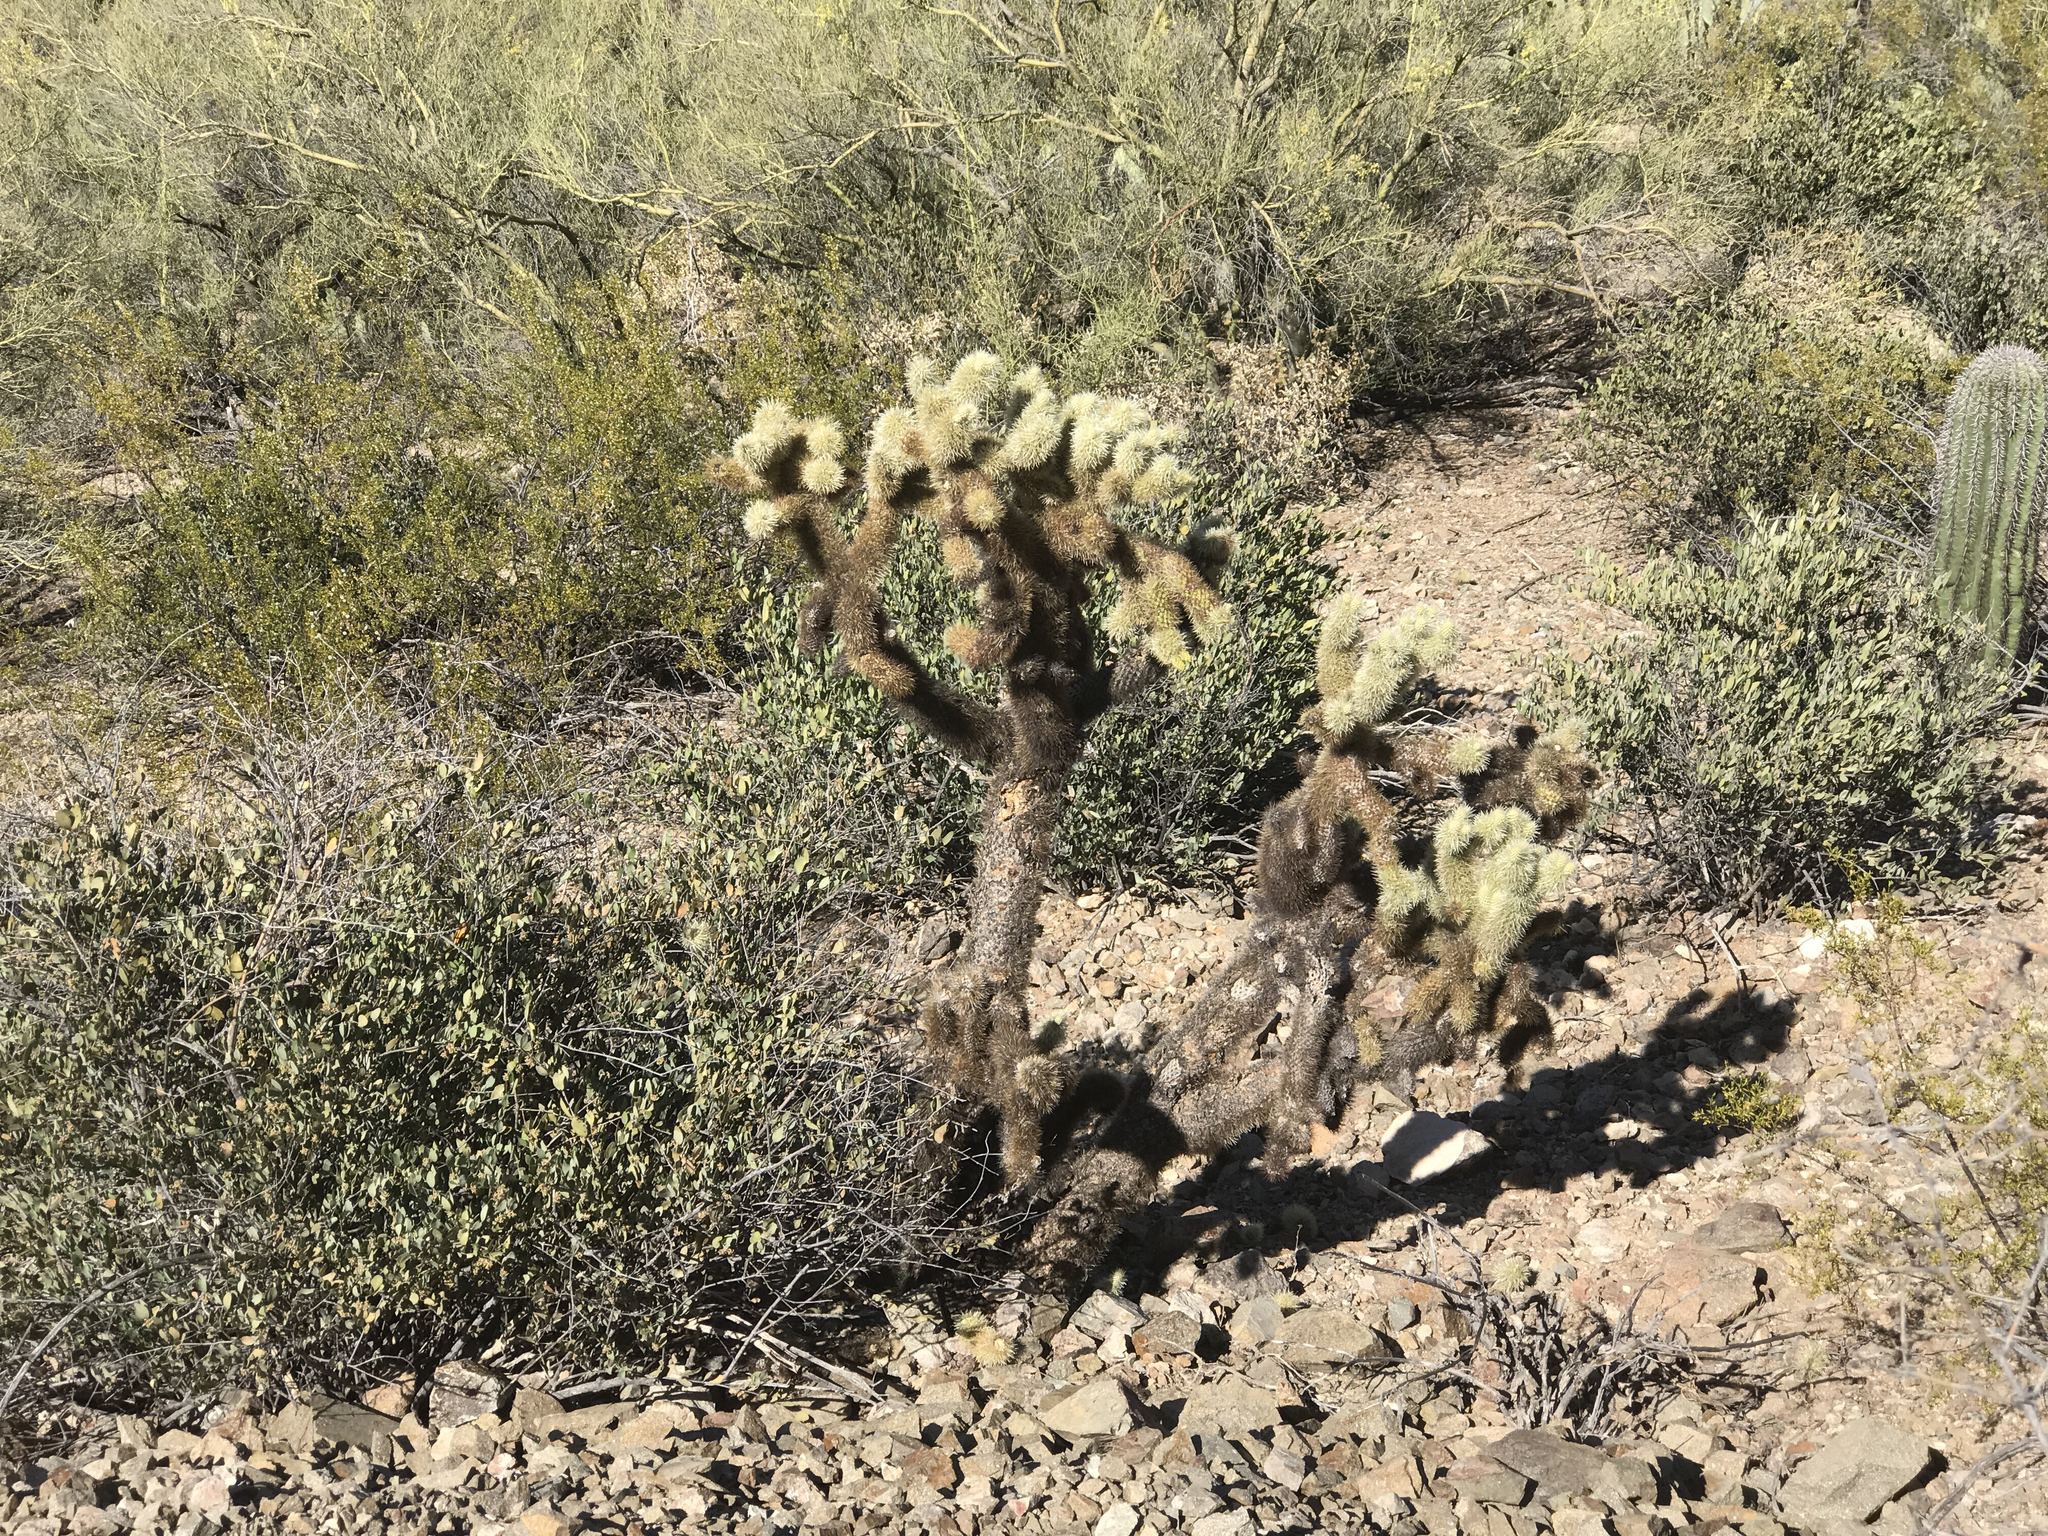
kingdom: Plantae
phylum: Tracheophyta
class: Magnoliopsida
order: Caryophyllales
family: Cactaceae
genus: Cylindropuntia
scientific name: Cylindropuntia fosbergii
